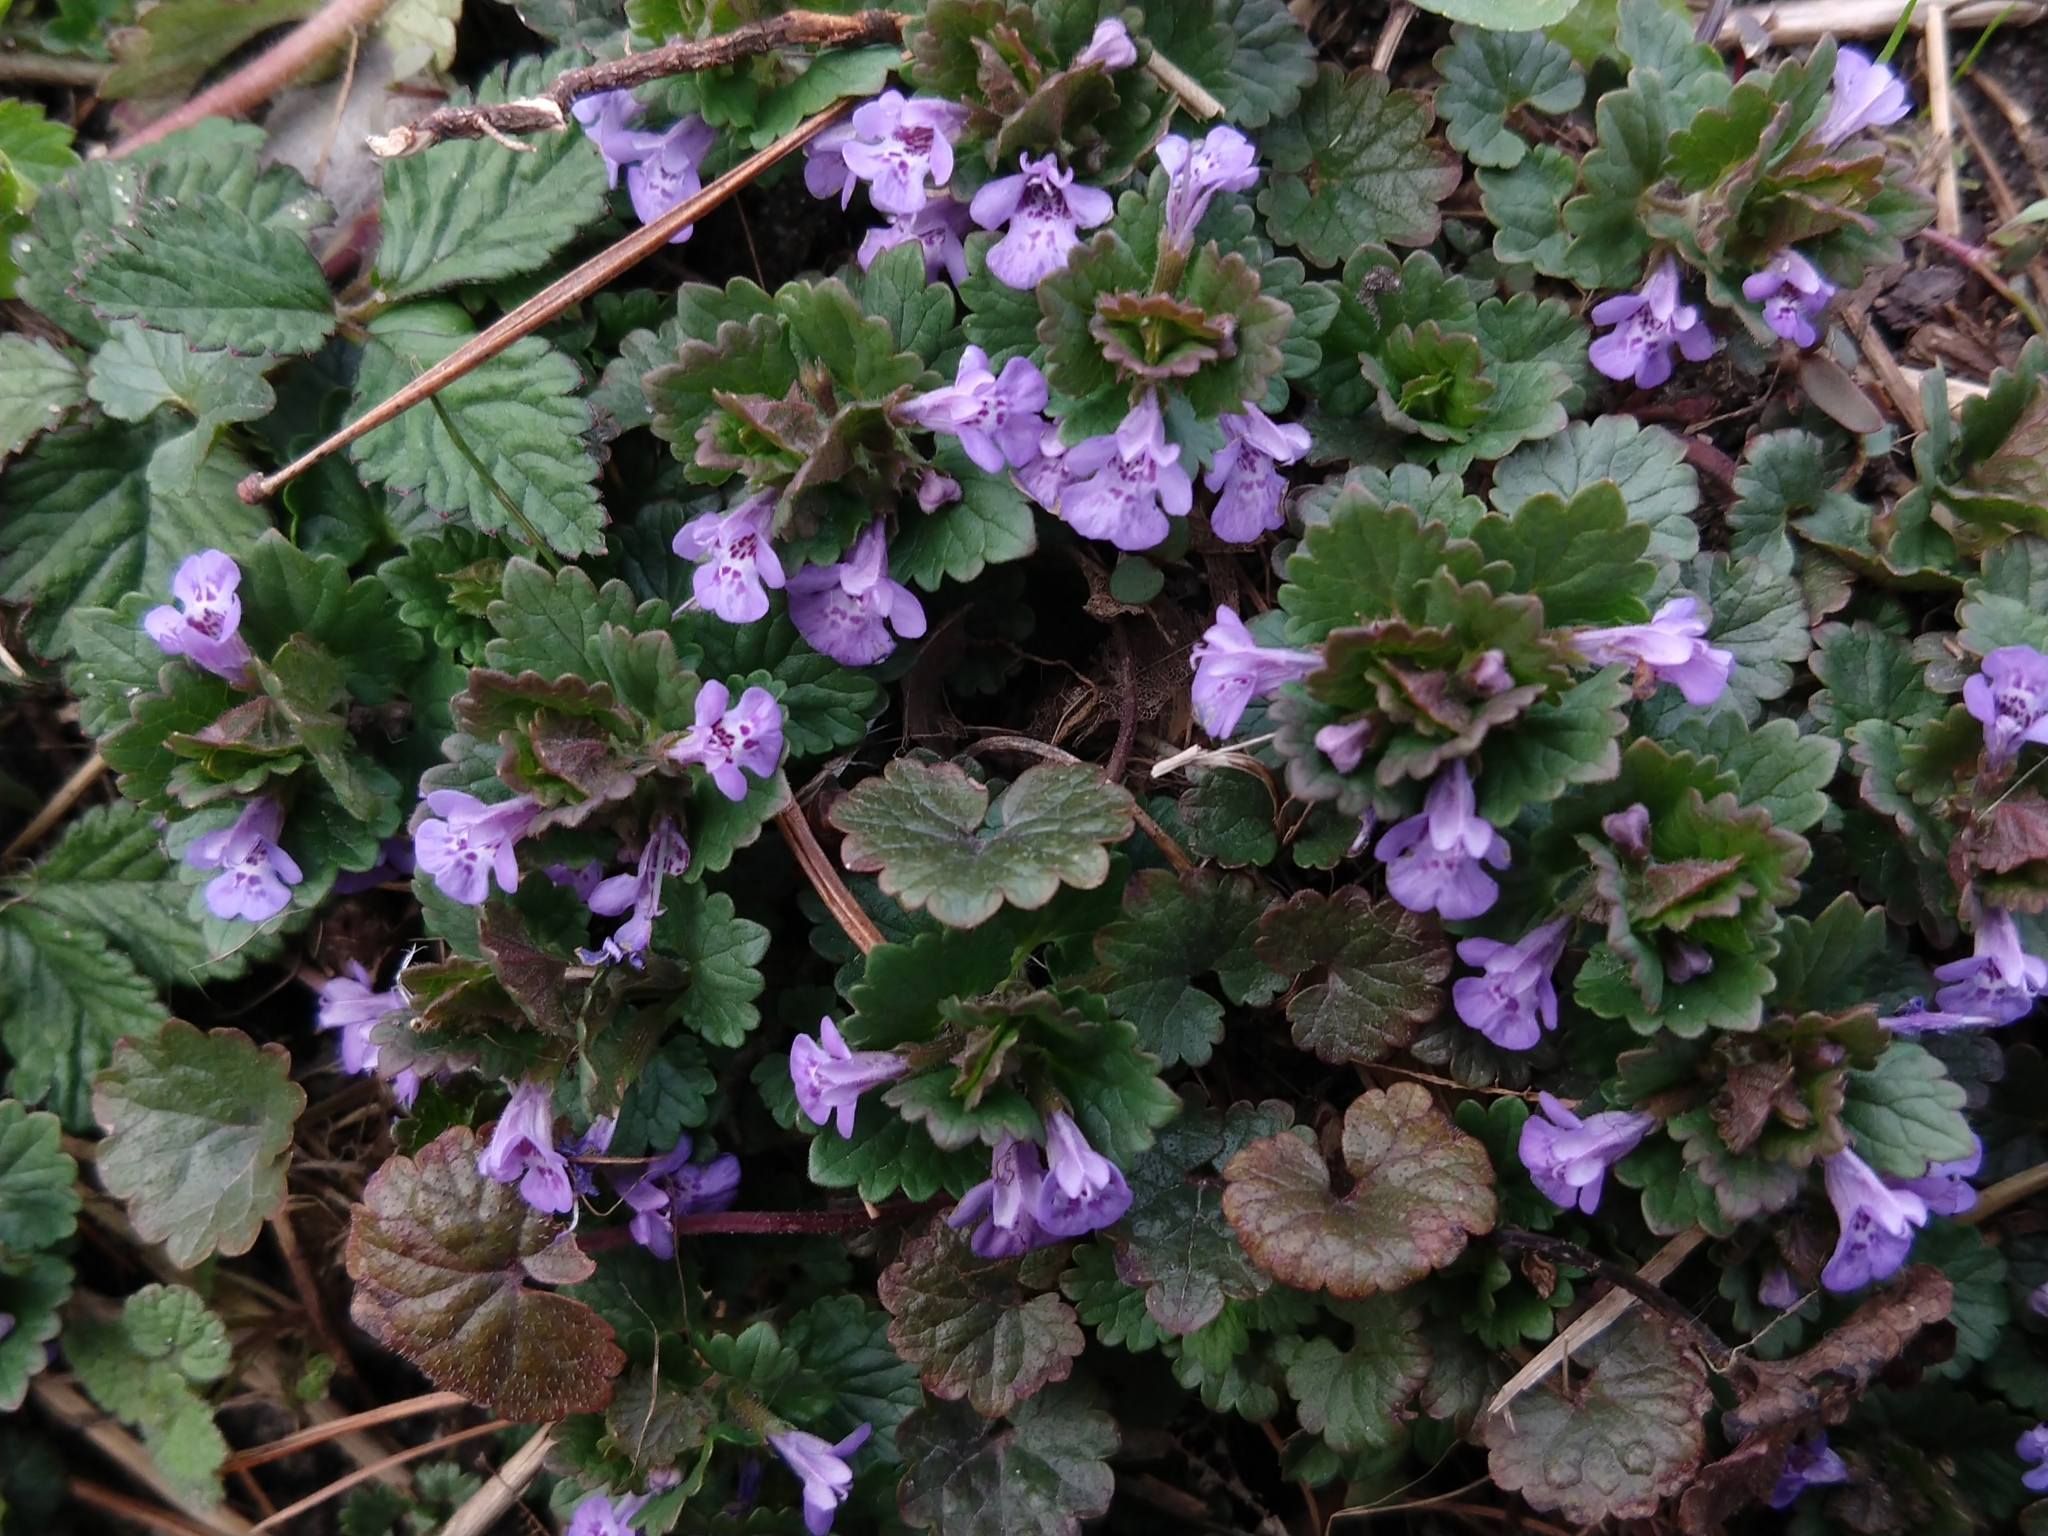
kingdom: Plantae
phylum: Tracheophyta
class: Magnoliopsida
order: Lamiales
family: Lamiaceae
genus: Glechoma
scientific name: Glechoma hederacea
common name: Ground ivy
